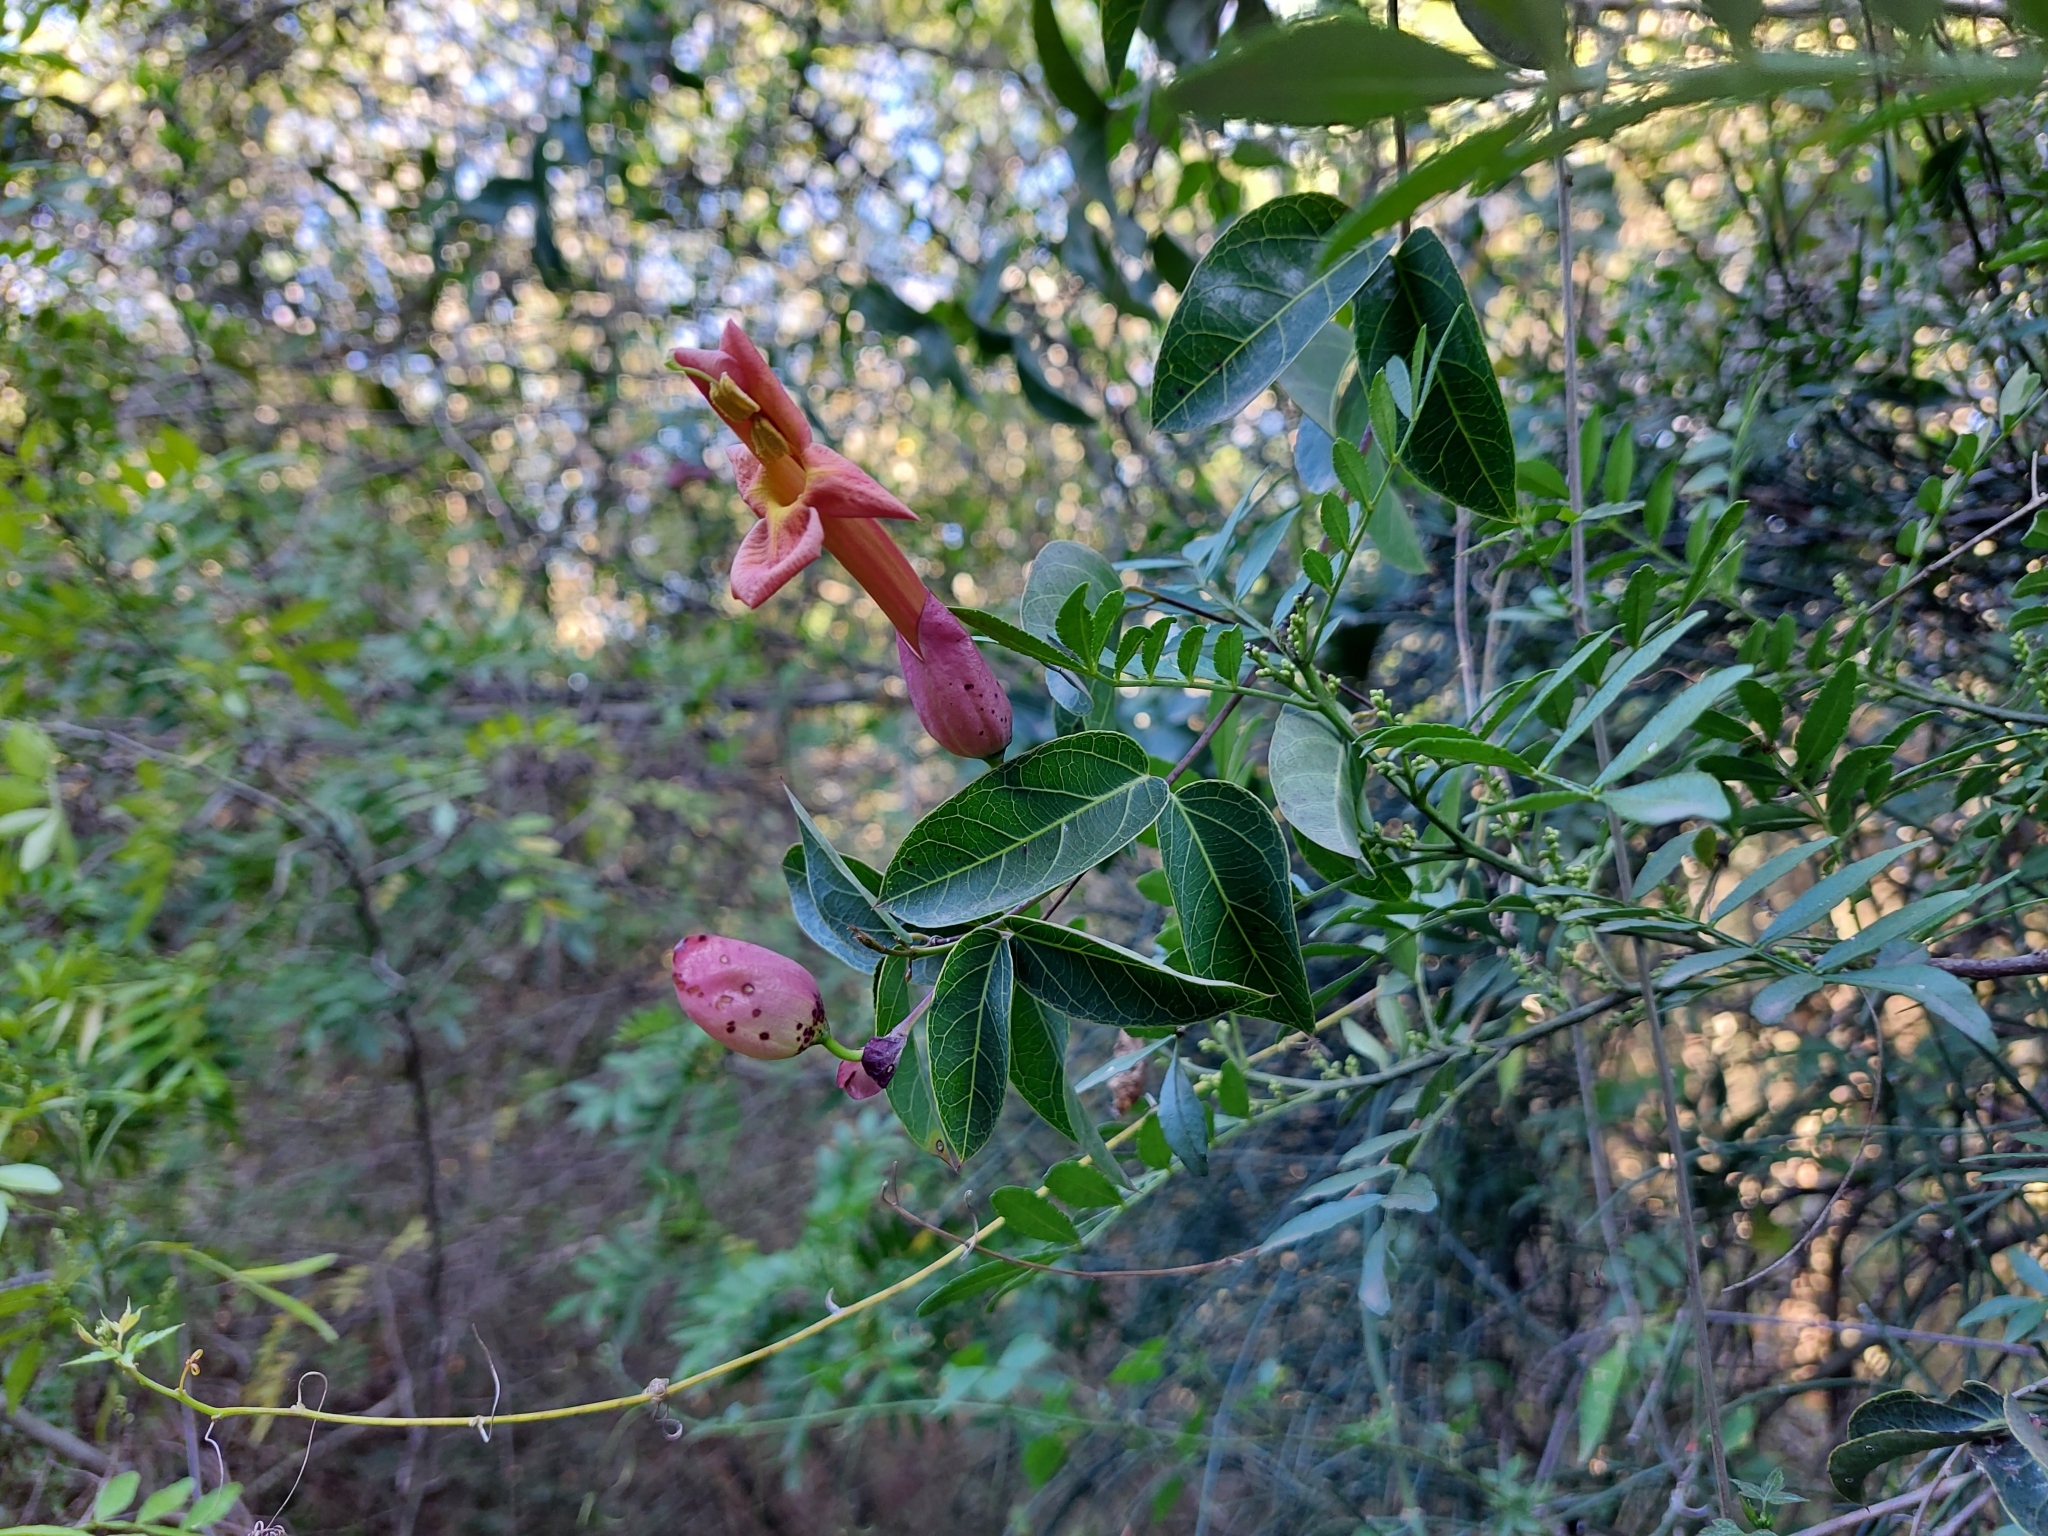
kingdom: Plantae
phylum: Tracheophyta
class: Magnoliopsida
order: Lamiales
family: Bignoniaceae
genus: Dolichandra
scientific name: Dolichandra cynanchoides
